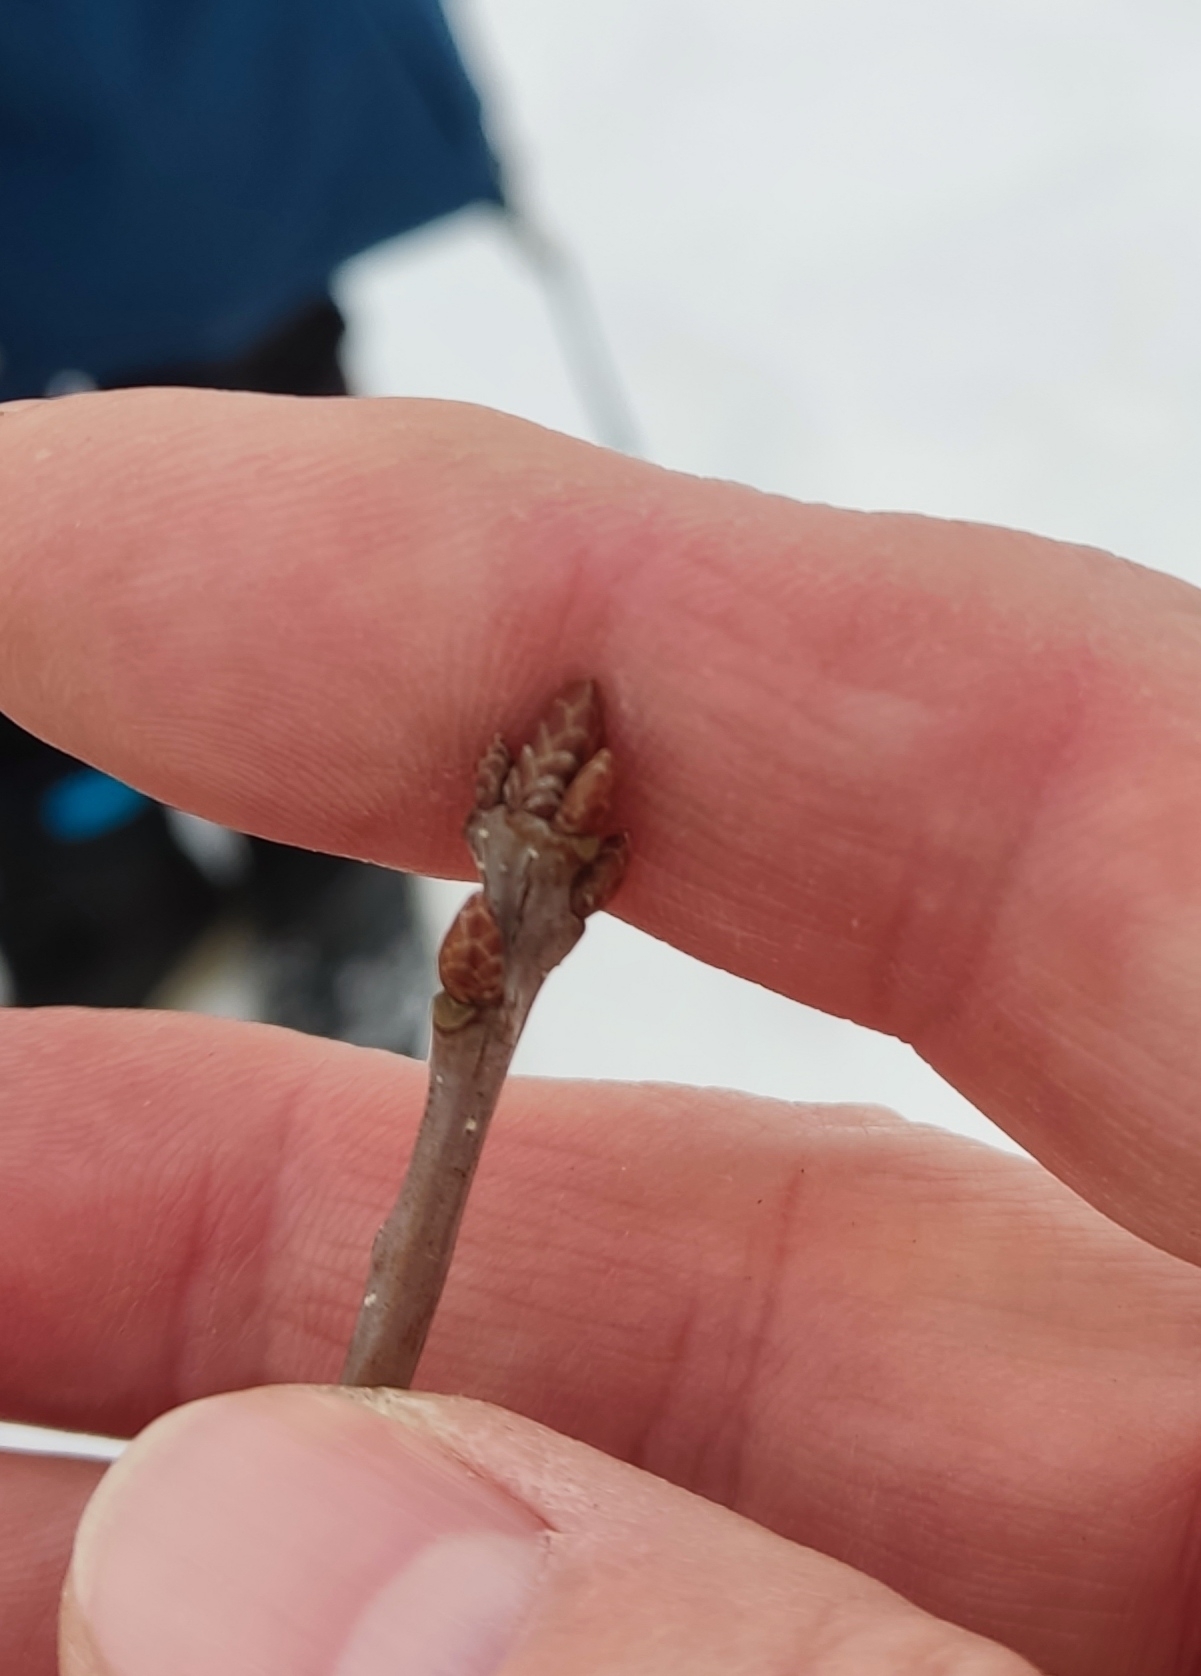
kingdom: Plantae
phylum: Tracheophyta
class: Magnoliopsida
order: Fagales
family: Fagaceae
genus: Quercus
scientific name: Quercus robur
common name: Pedunculate oak
